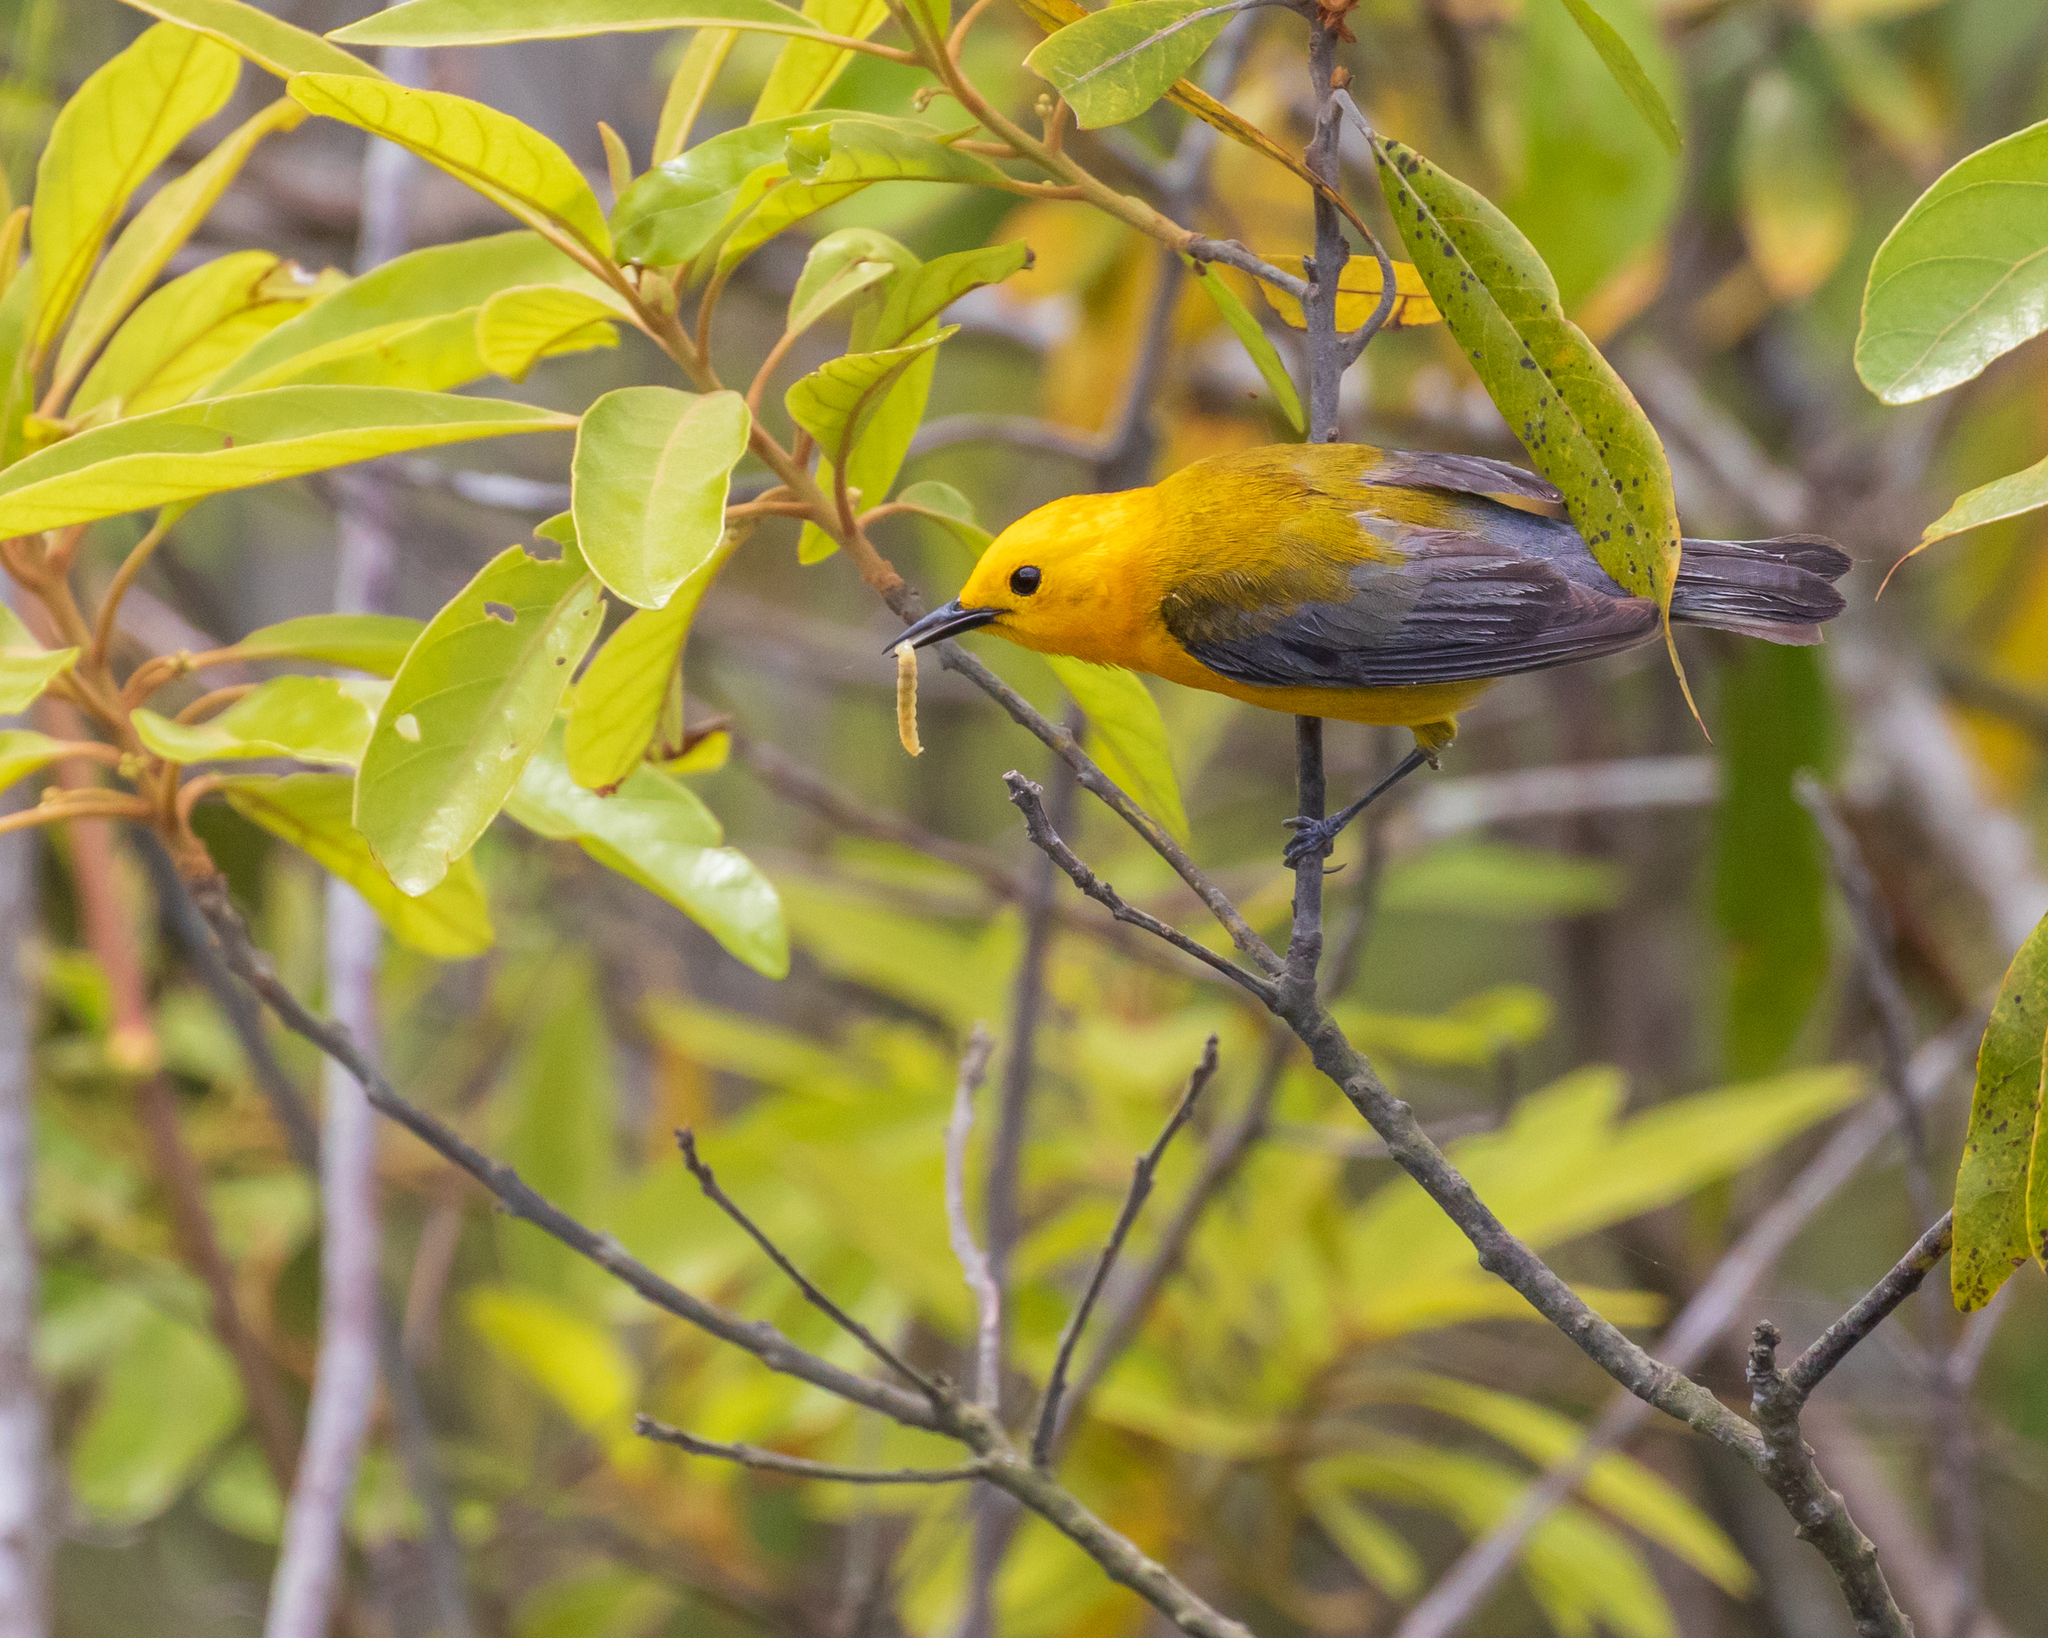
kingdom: Animalia
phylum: Chordata
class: Aves
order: Passeriformes
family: Parulidae
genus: Protonotaria
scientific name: Protonotaria citrea
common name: Prothonotary warbler
